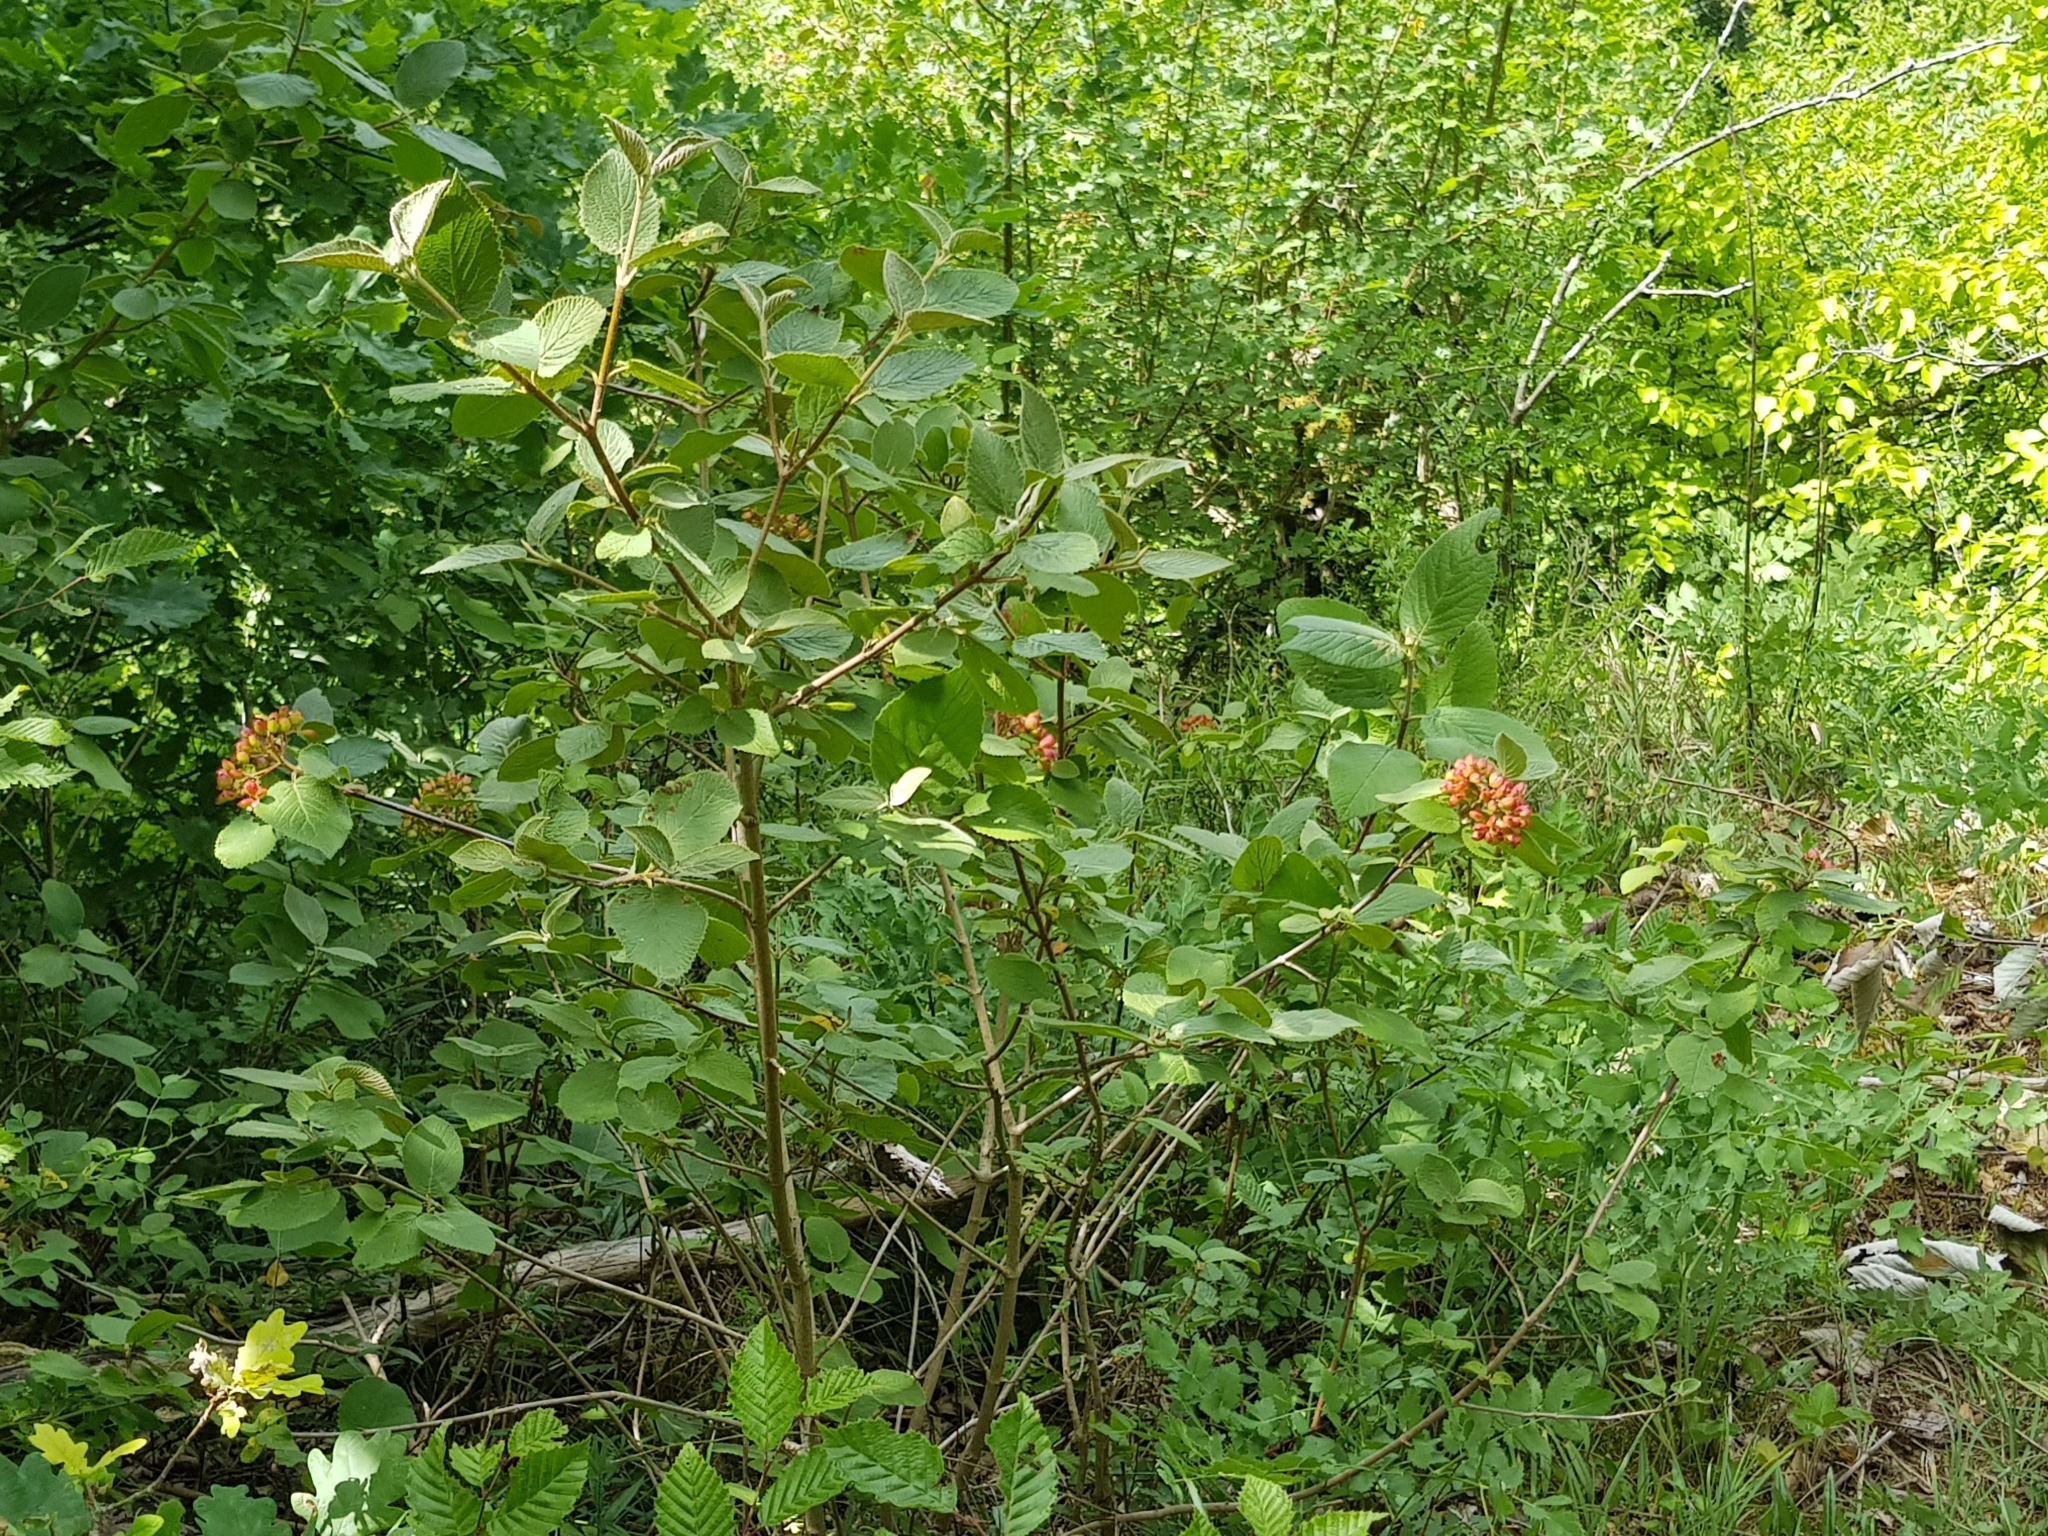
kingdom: Plantae
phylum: Tracheophyta
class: Magnoliopsida
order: Dipsacales
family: Viburnaceae
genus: Viburnum
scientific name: Viburnum lantana
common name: Wayfaring tree
